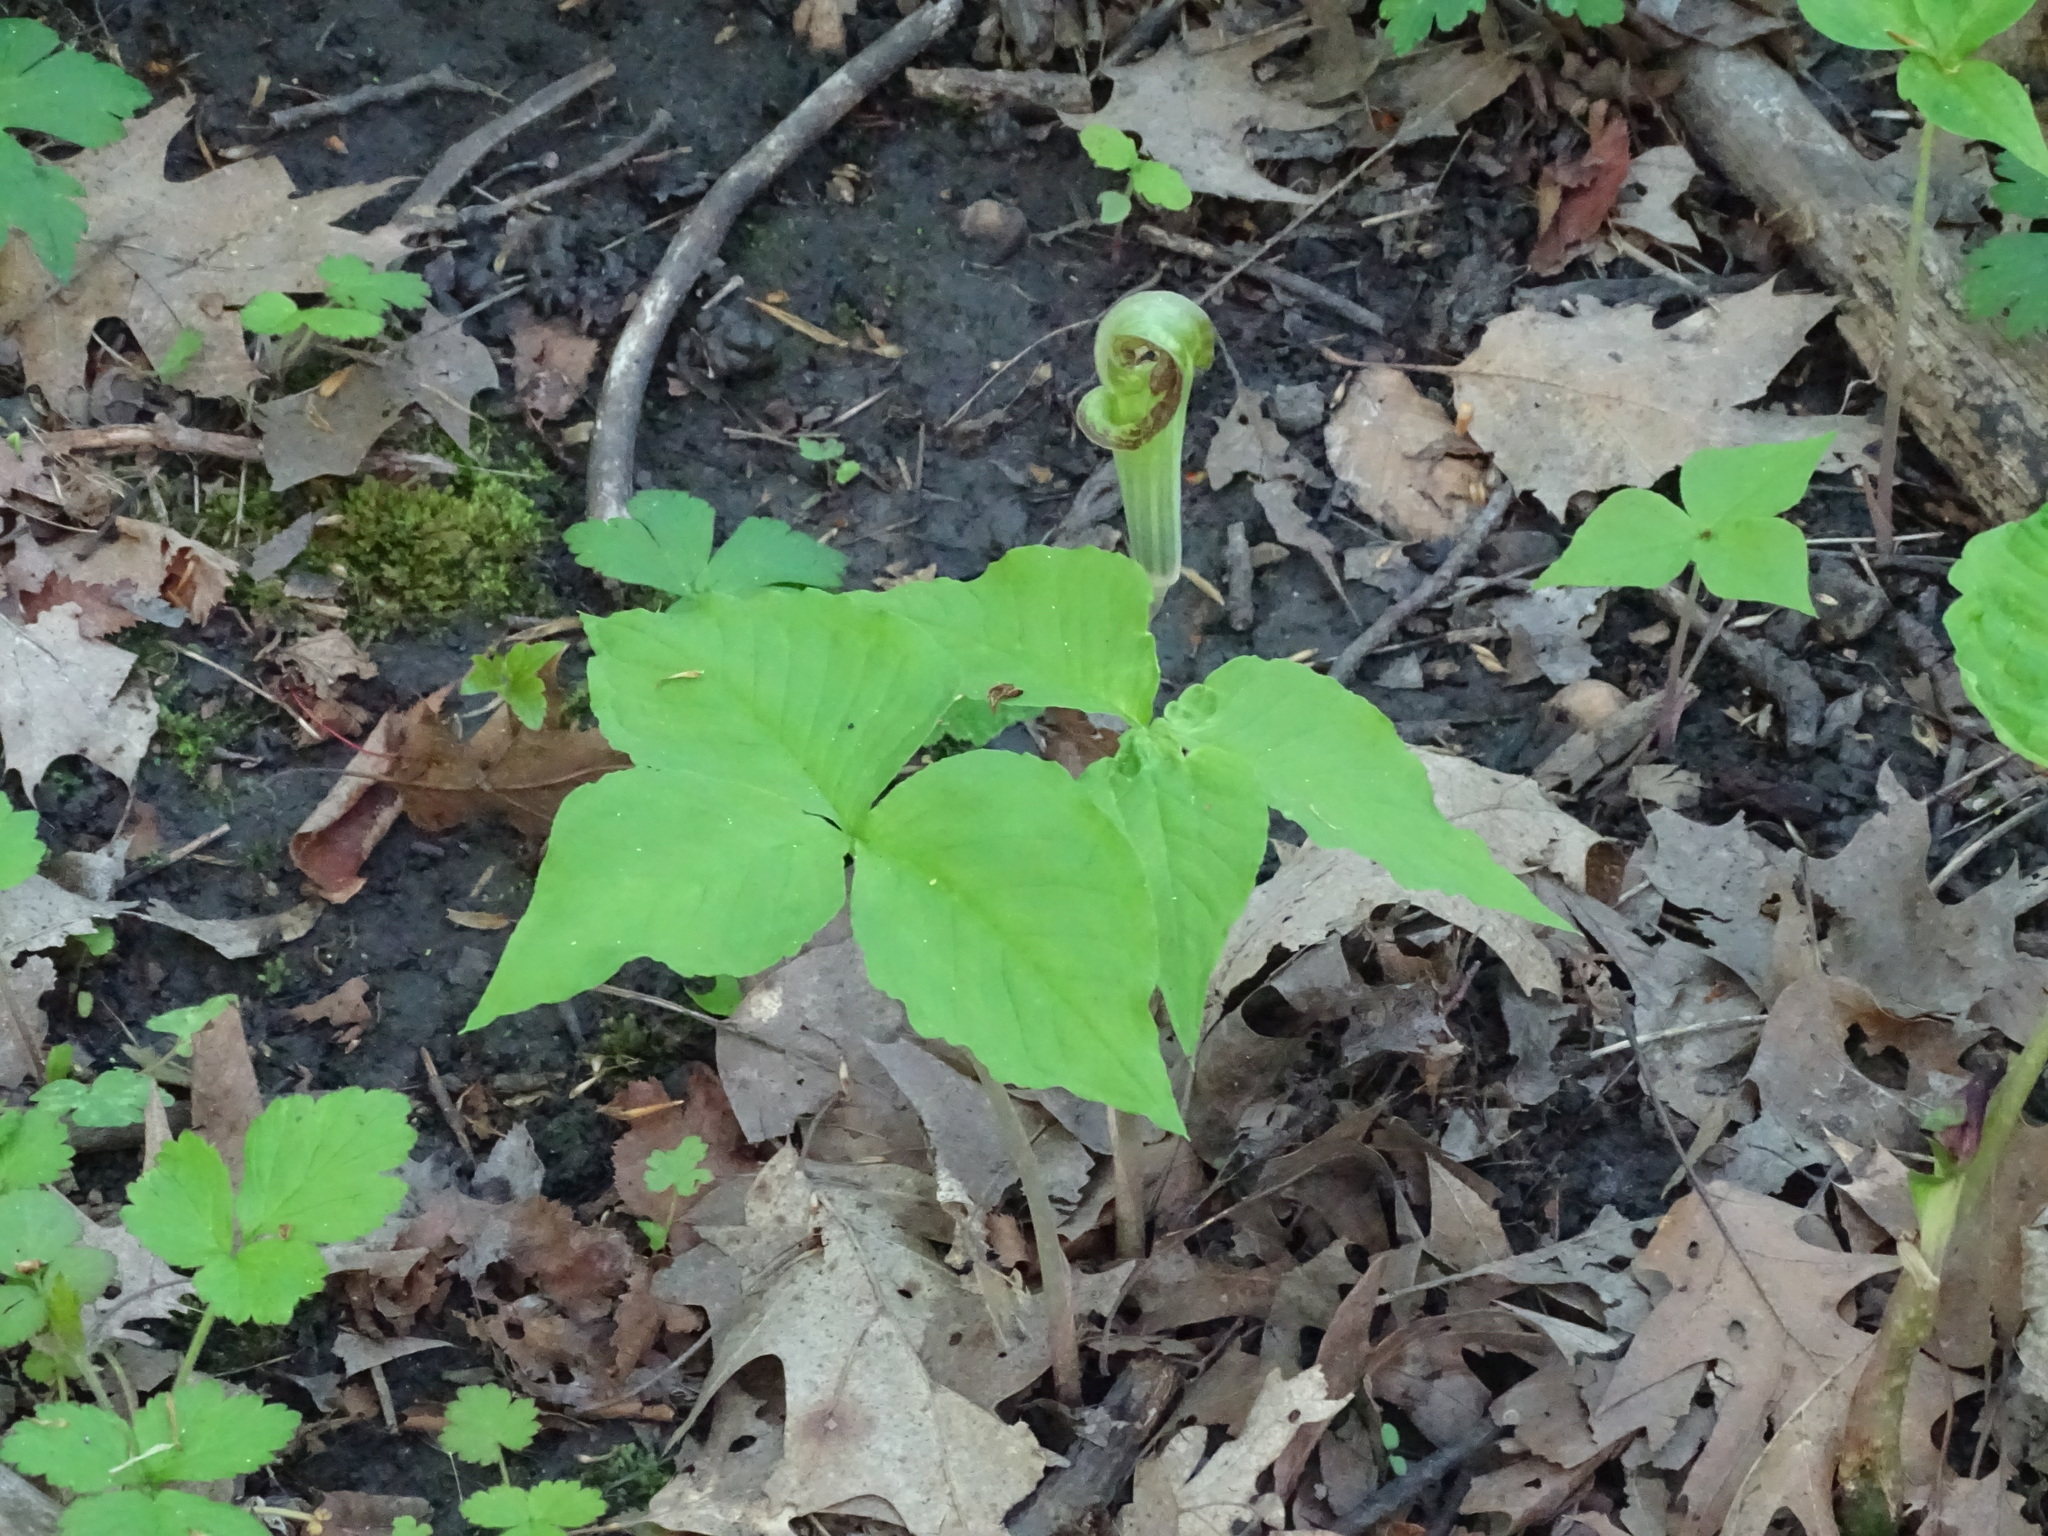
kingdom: Plantae
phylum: Tracheophyta
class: Liliopsida
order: Alismatales
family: Araceae
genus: Arisaema
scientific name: Arisaema triphyllum
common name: Jack-in-the-pulpit
